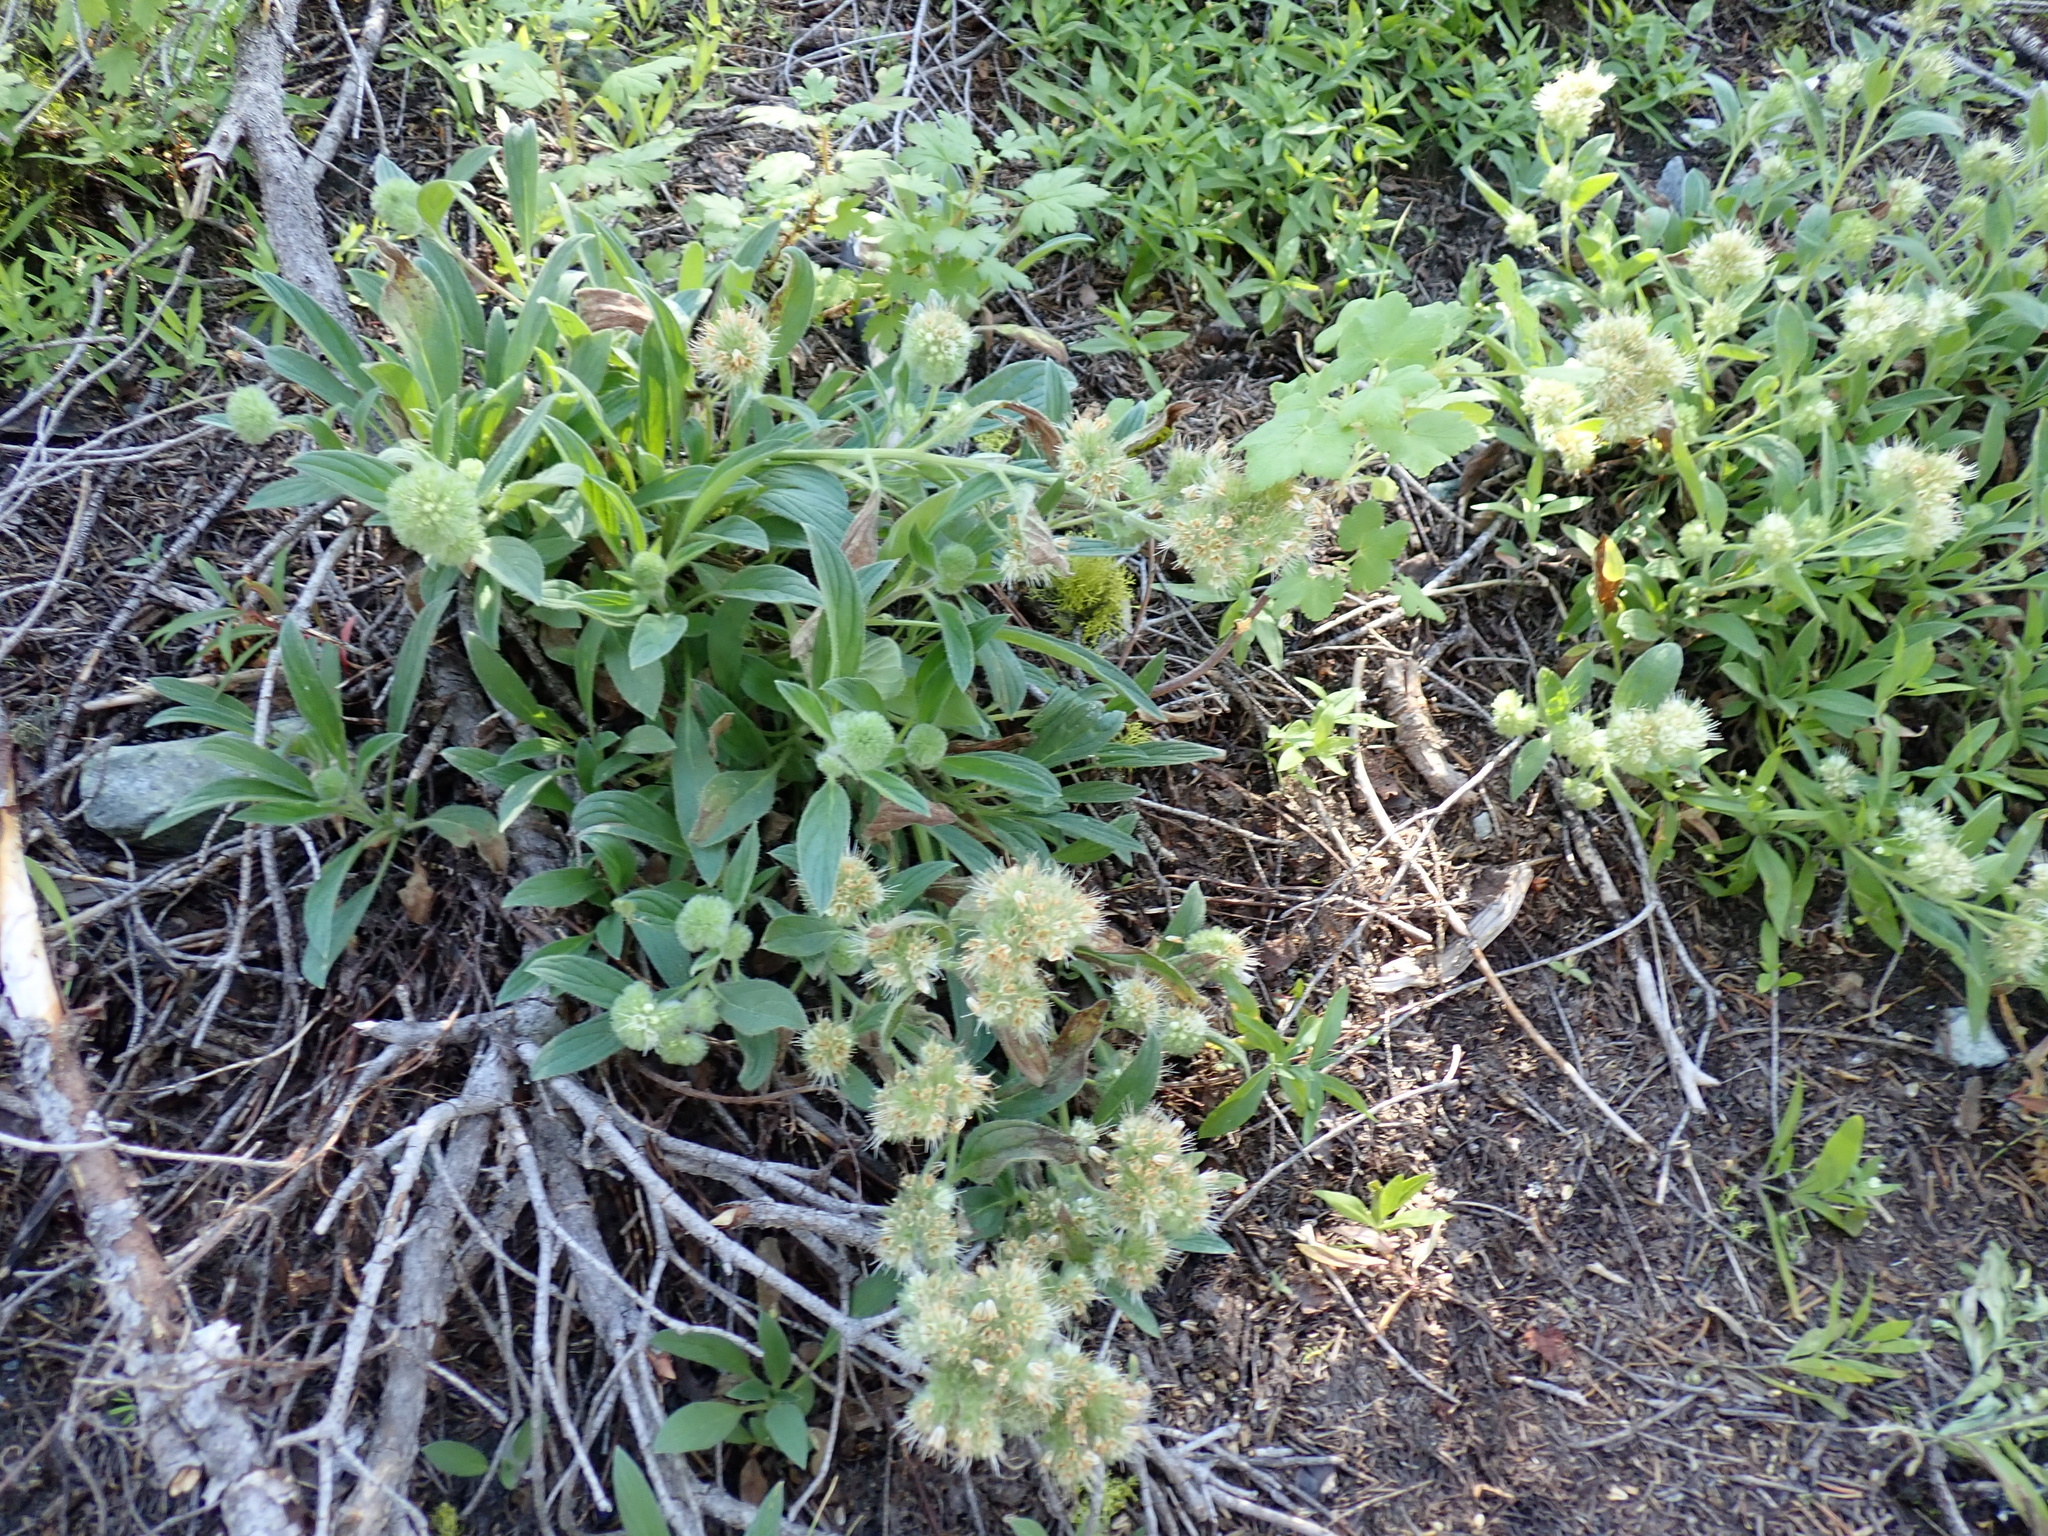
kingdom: Plantae
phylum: Tracheophyta
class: Magnoliopsida
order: Boraginales
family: Hydrophyllaceae
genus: Phacelia
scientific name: Phacelia hastata
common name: Silver-leaved phacelia
